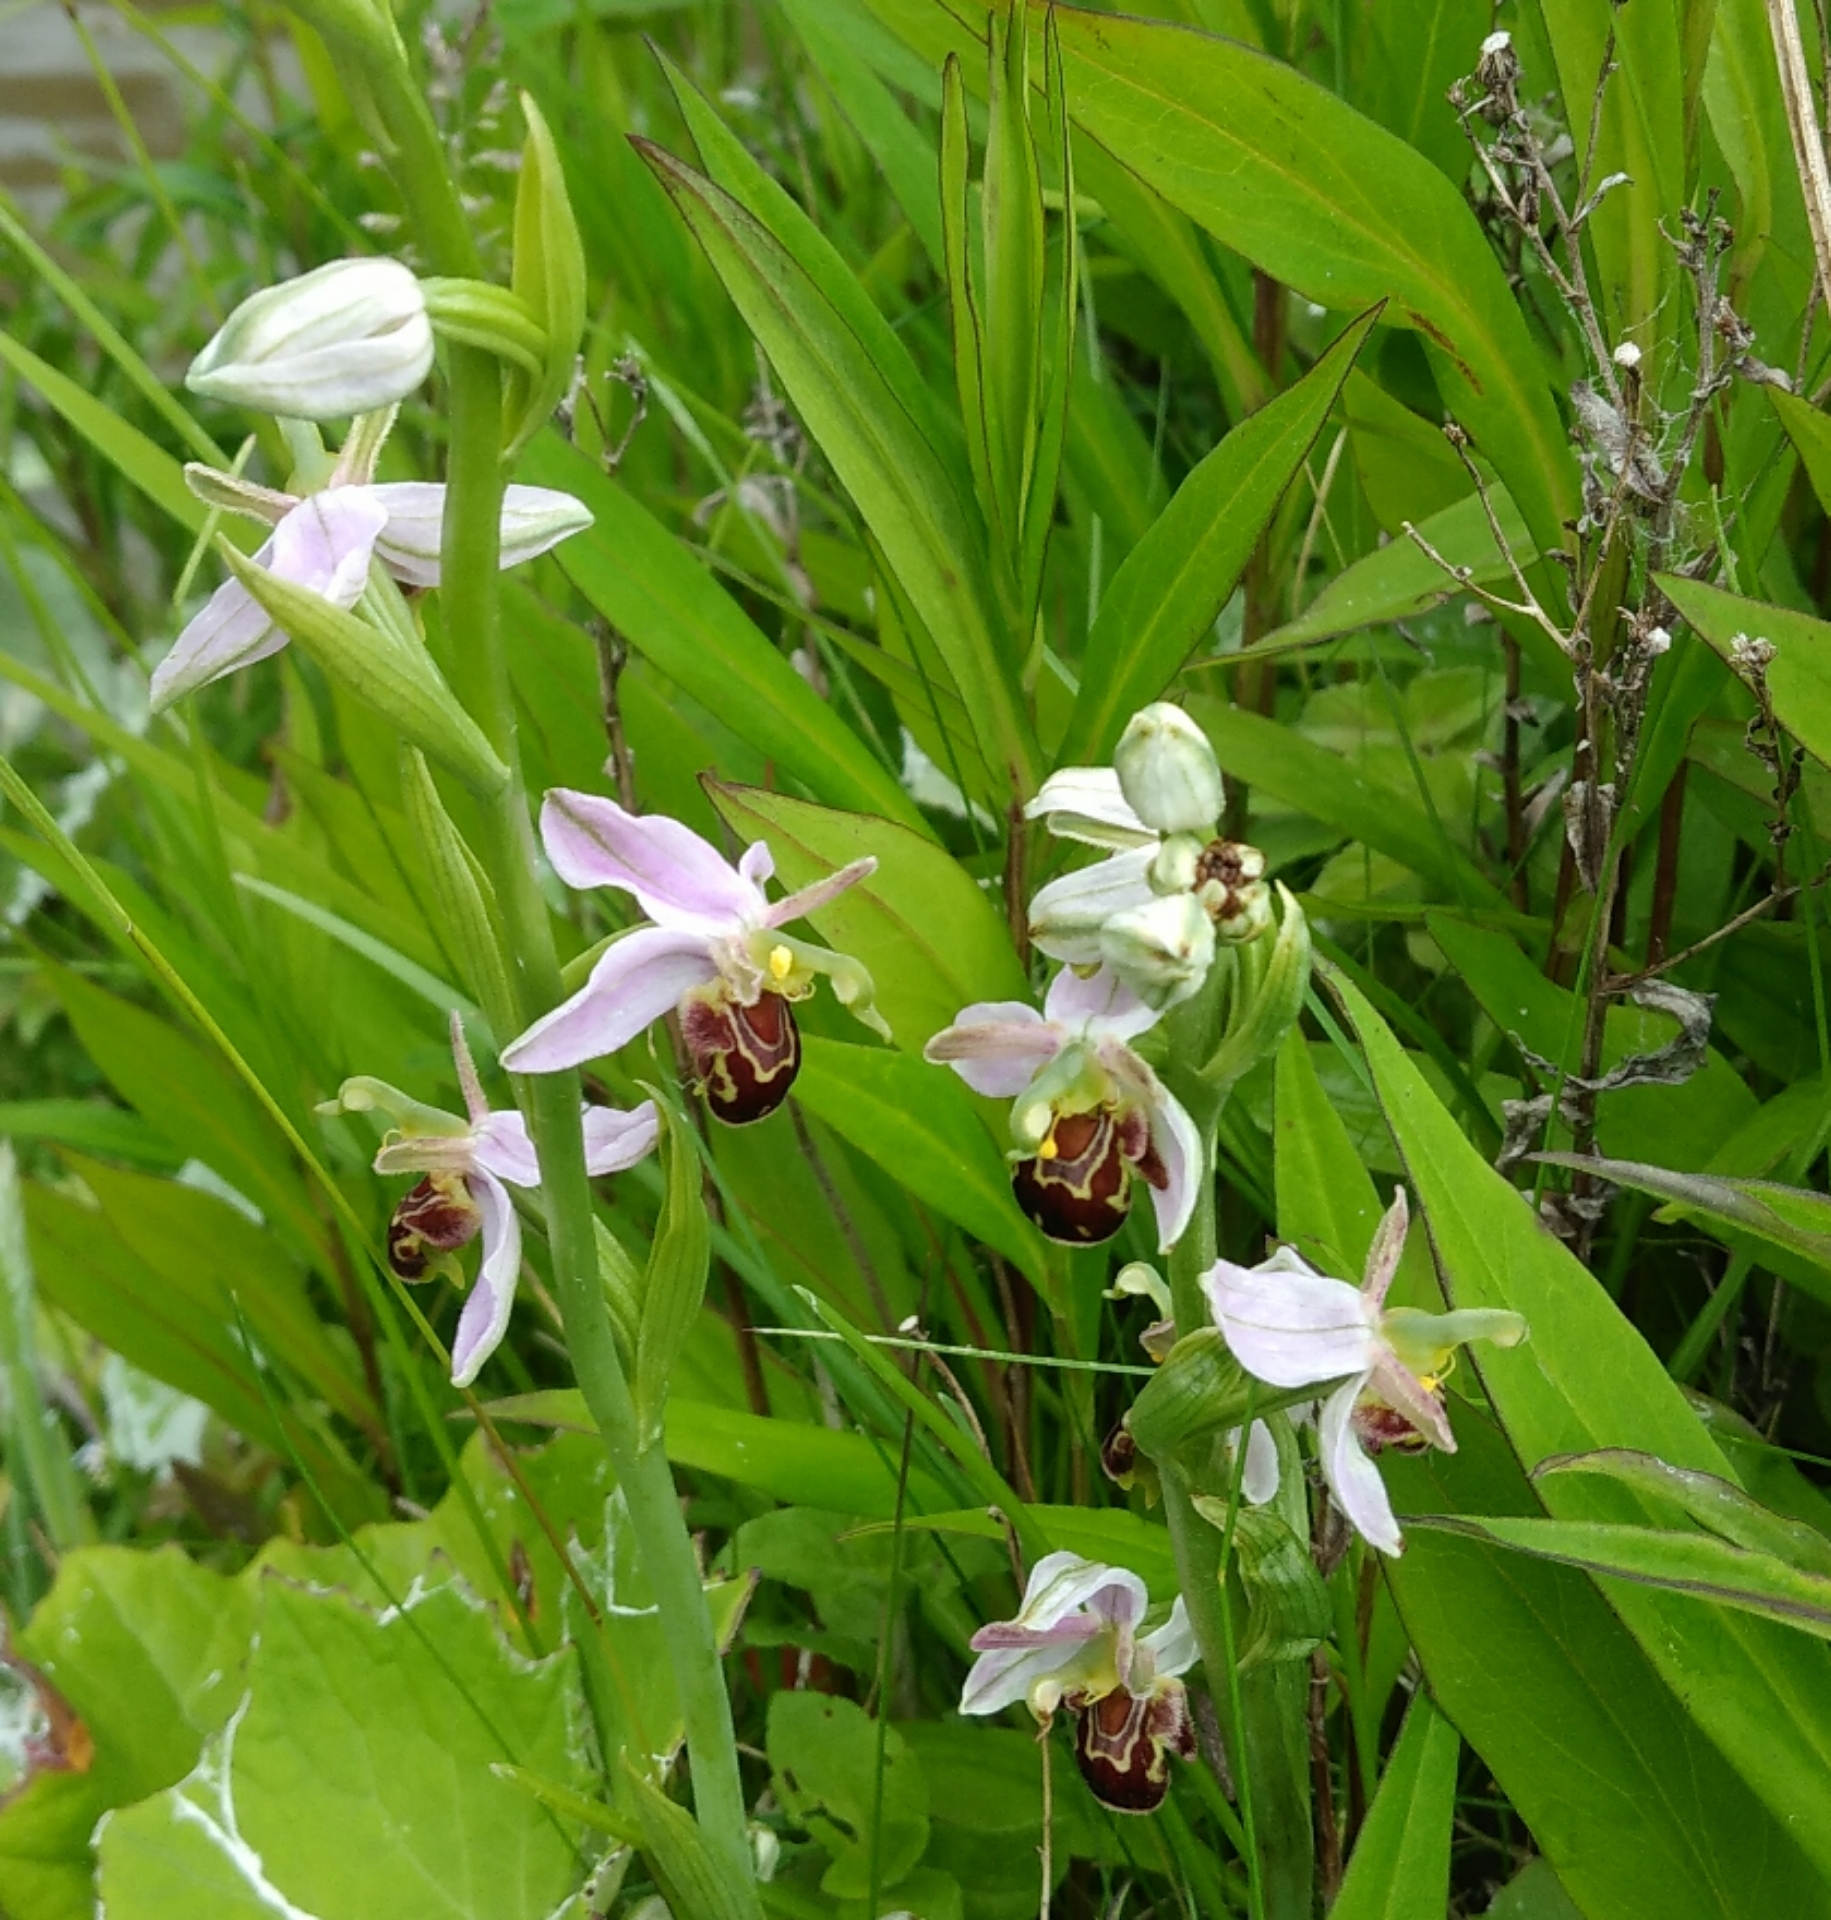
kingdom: Plantae
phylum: Tracheophyta
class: Liliopsida
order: Asparagales
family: Orchidaceae
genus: Ophrys
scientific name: Ophrys apifera
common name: Bee orchid
